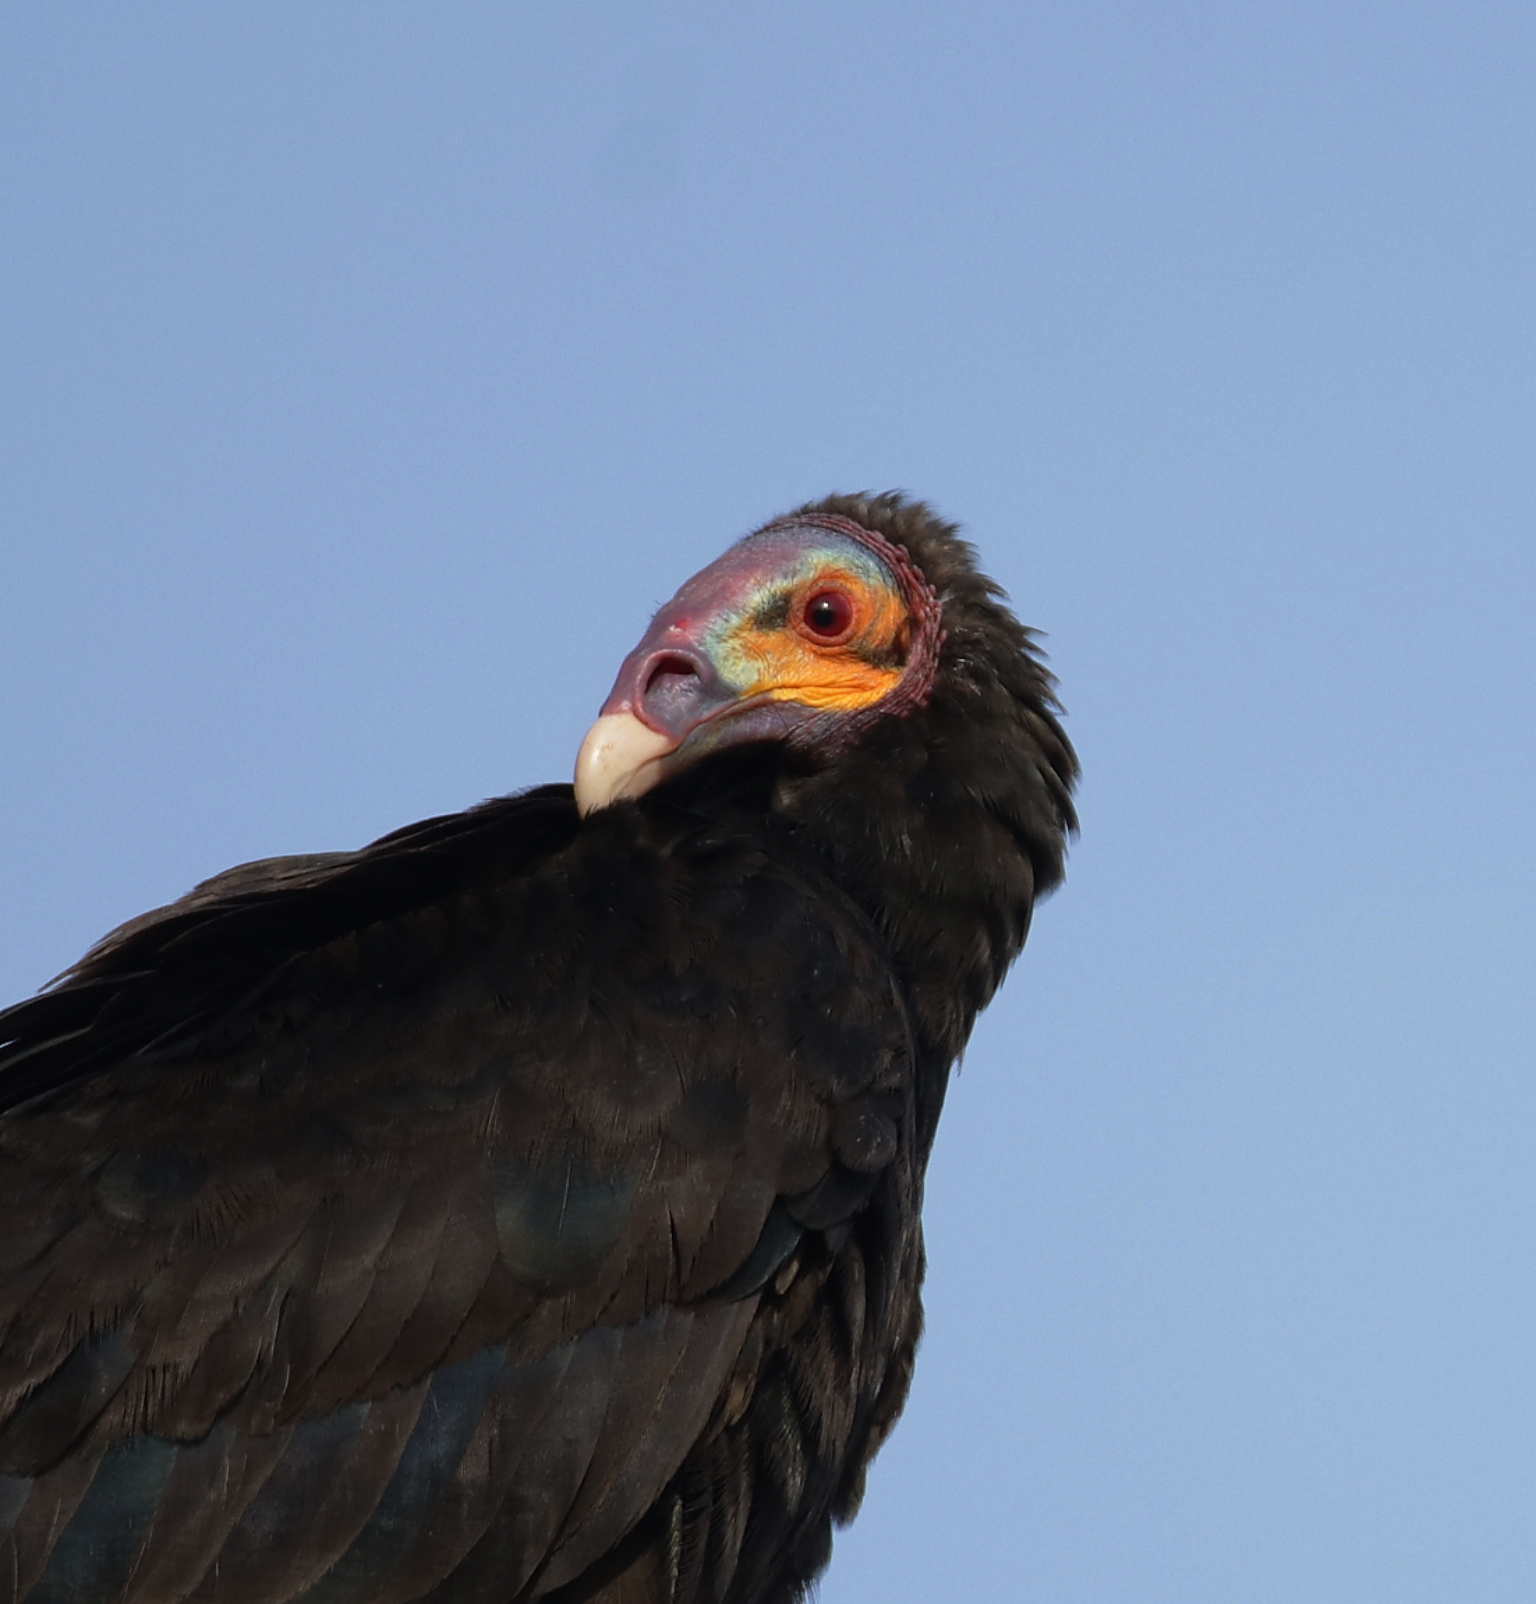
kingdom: Animalia
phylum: Chordata
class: Aves
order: Accipitriformes
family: Cathartidae
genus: Cathartes
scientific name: Cathartes burrovianus
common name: Lesser yellow-headed vulture
